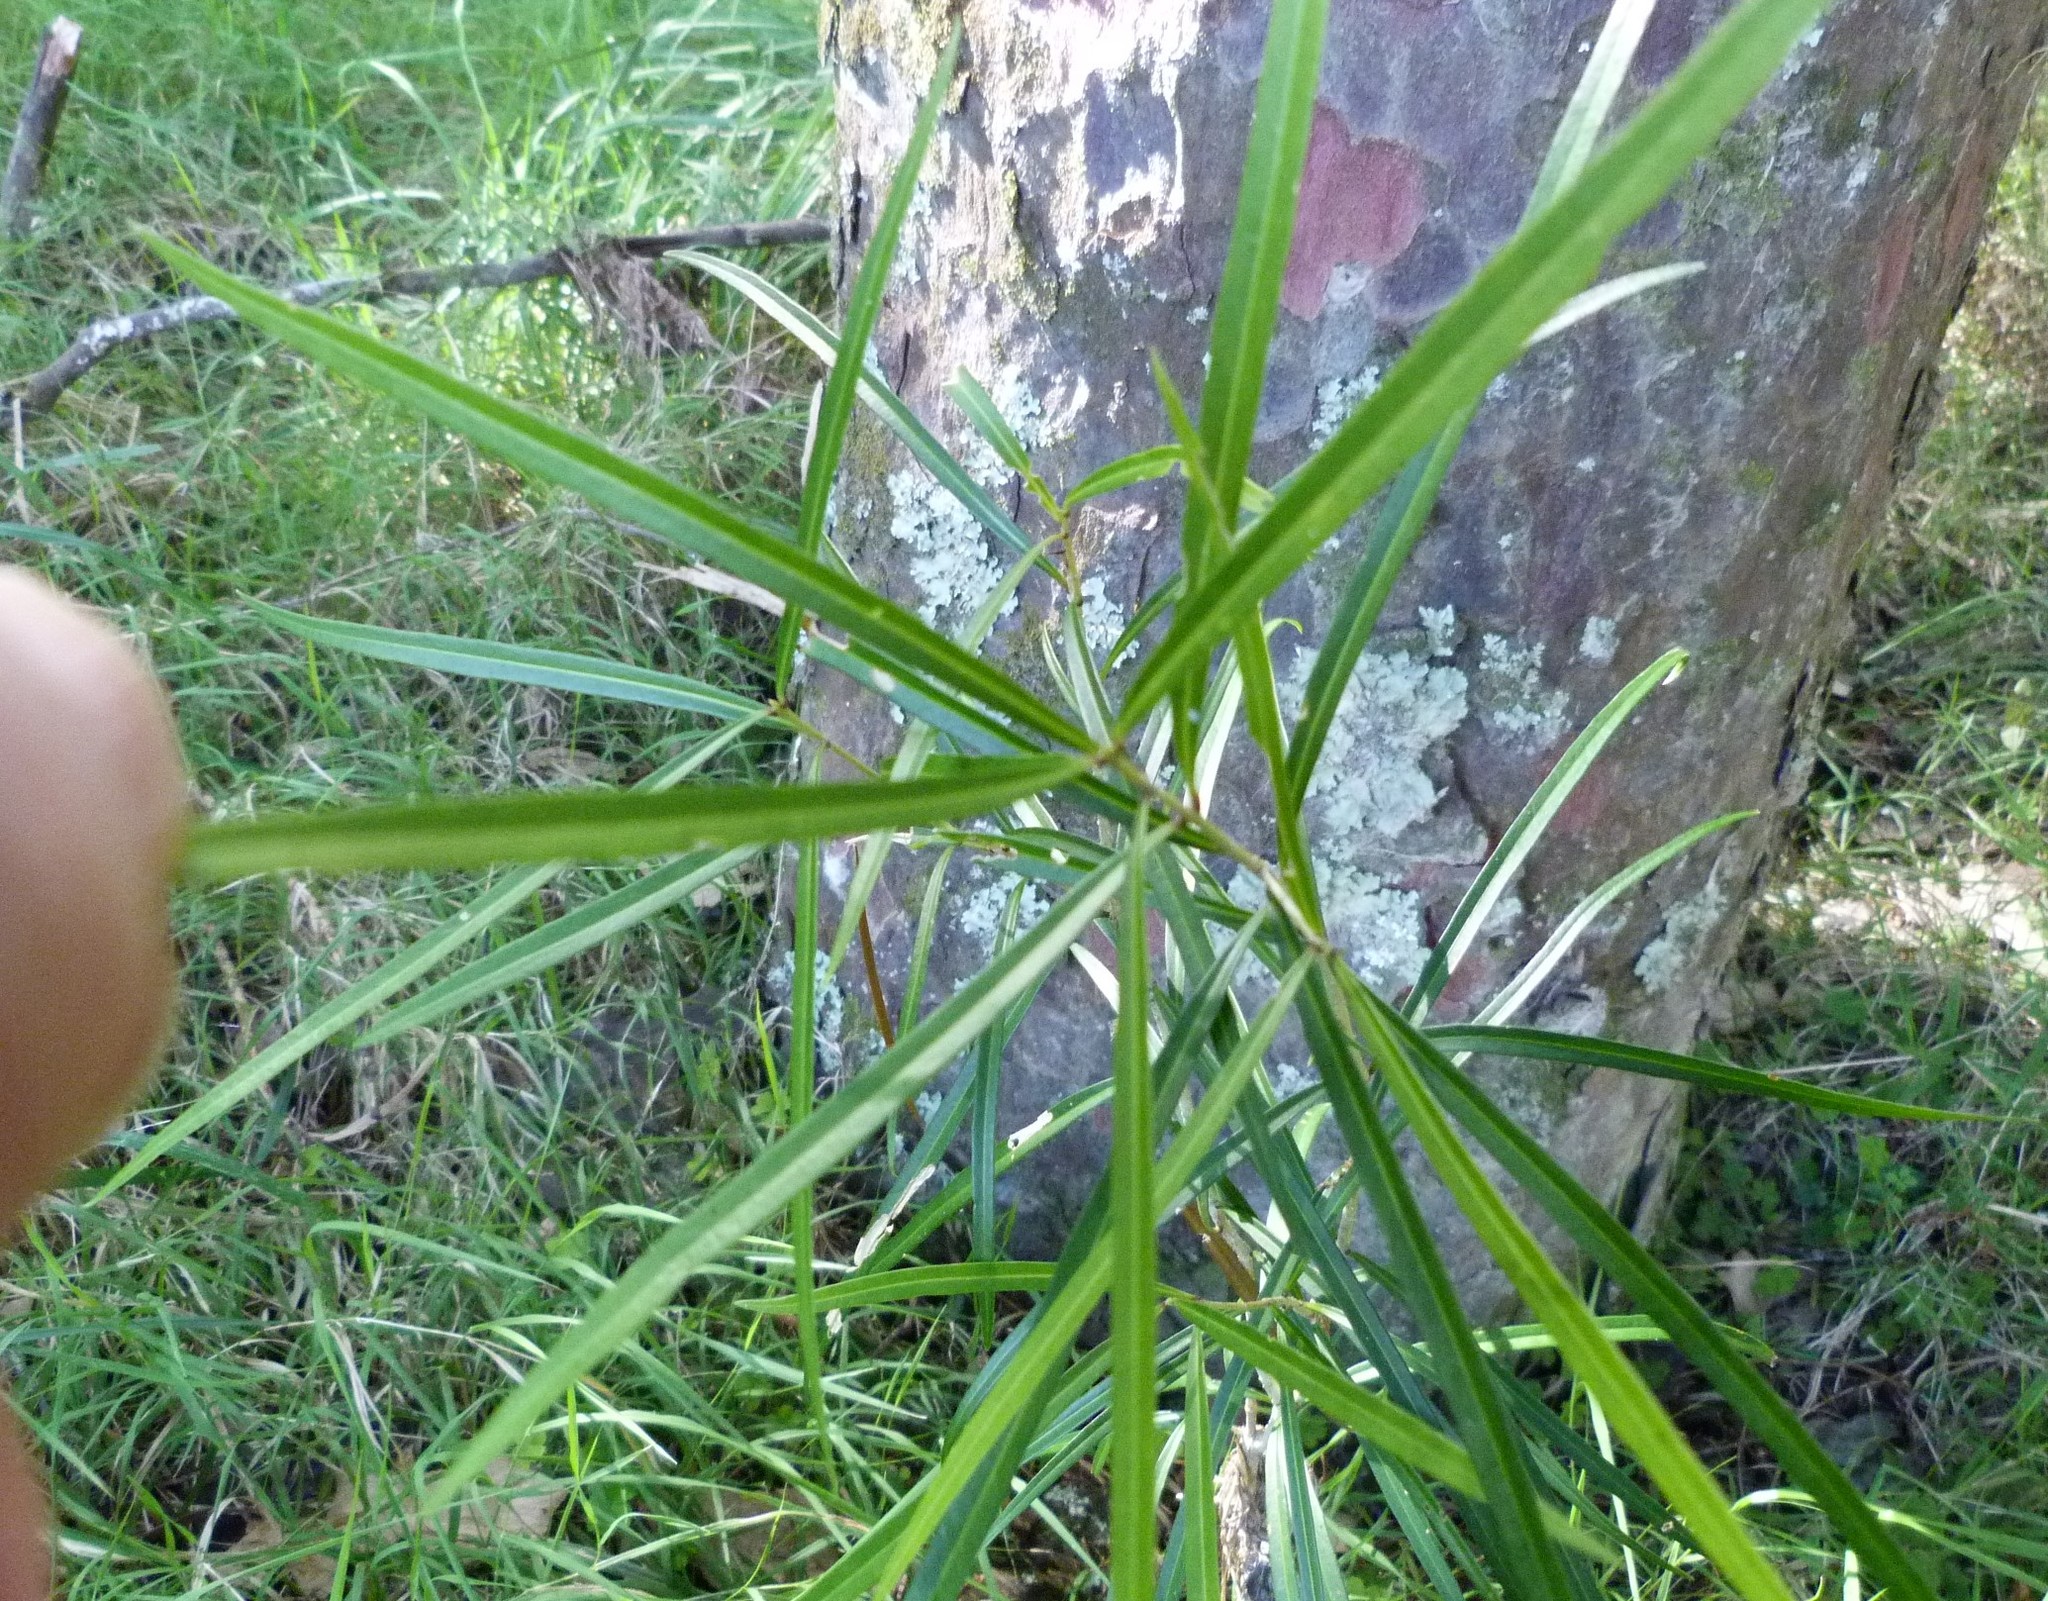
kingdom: Plantae
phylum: Tracheophyta
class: Magnoliopsida
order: Lamiales
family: Oleaceae
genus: Nestegis
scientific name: Nestegis lanceolata
